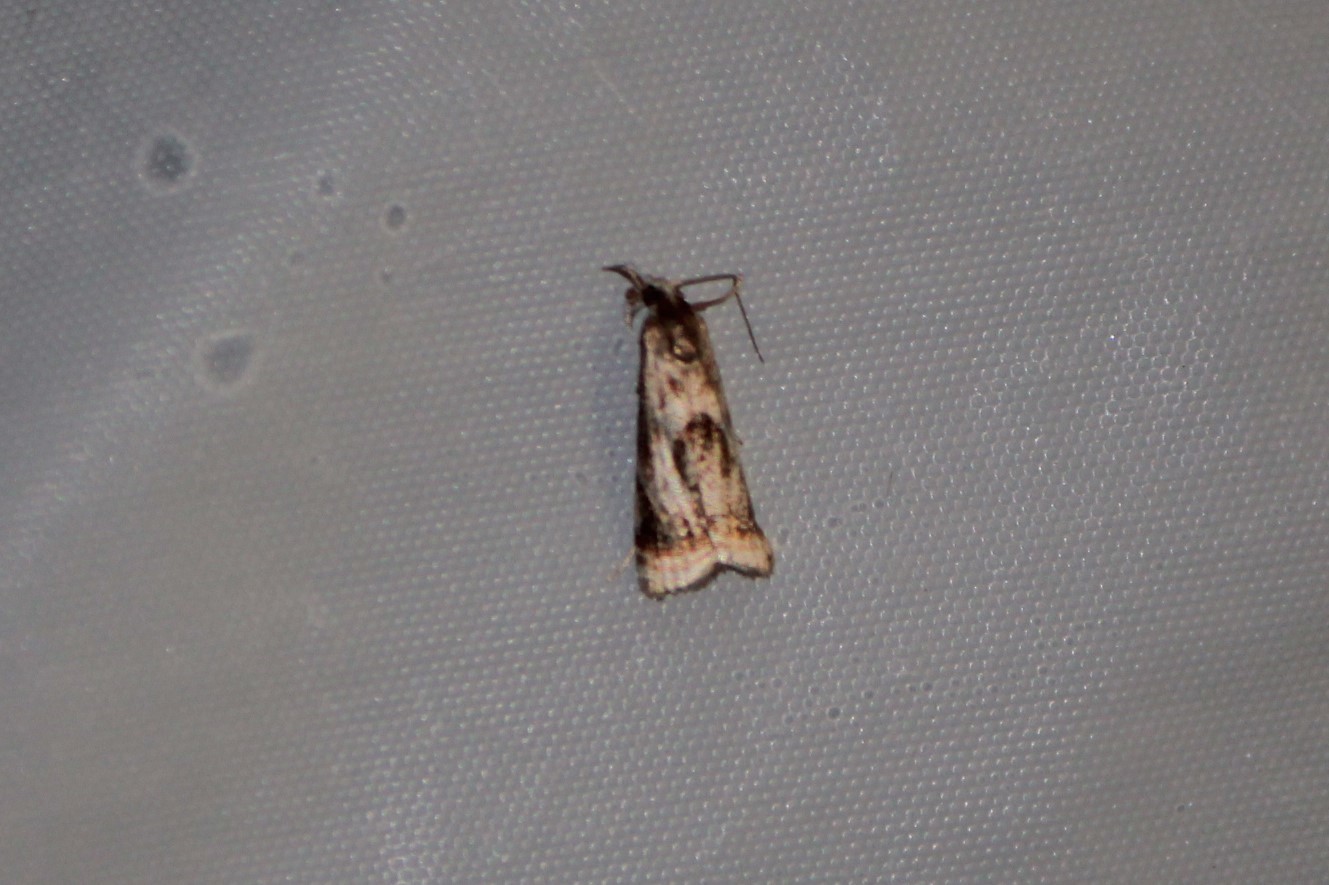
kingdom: Animalia
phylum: Arthropoda
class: Insecta
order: Lepidoptera
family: Crambidae
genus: Microcrambus
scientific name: Microcrambus elegans
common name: Elegant grass-veneer
